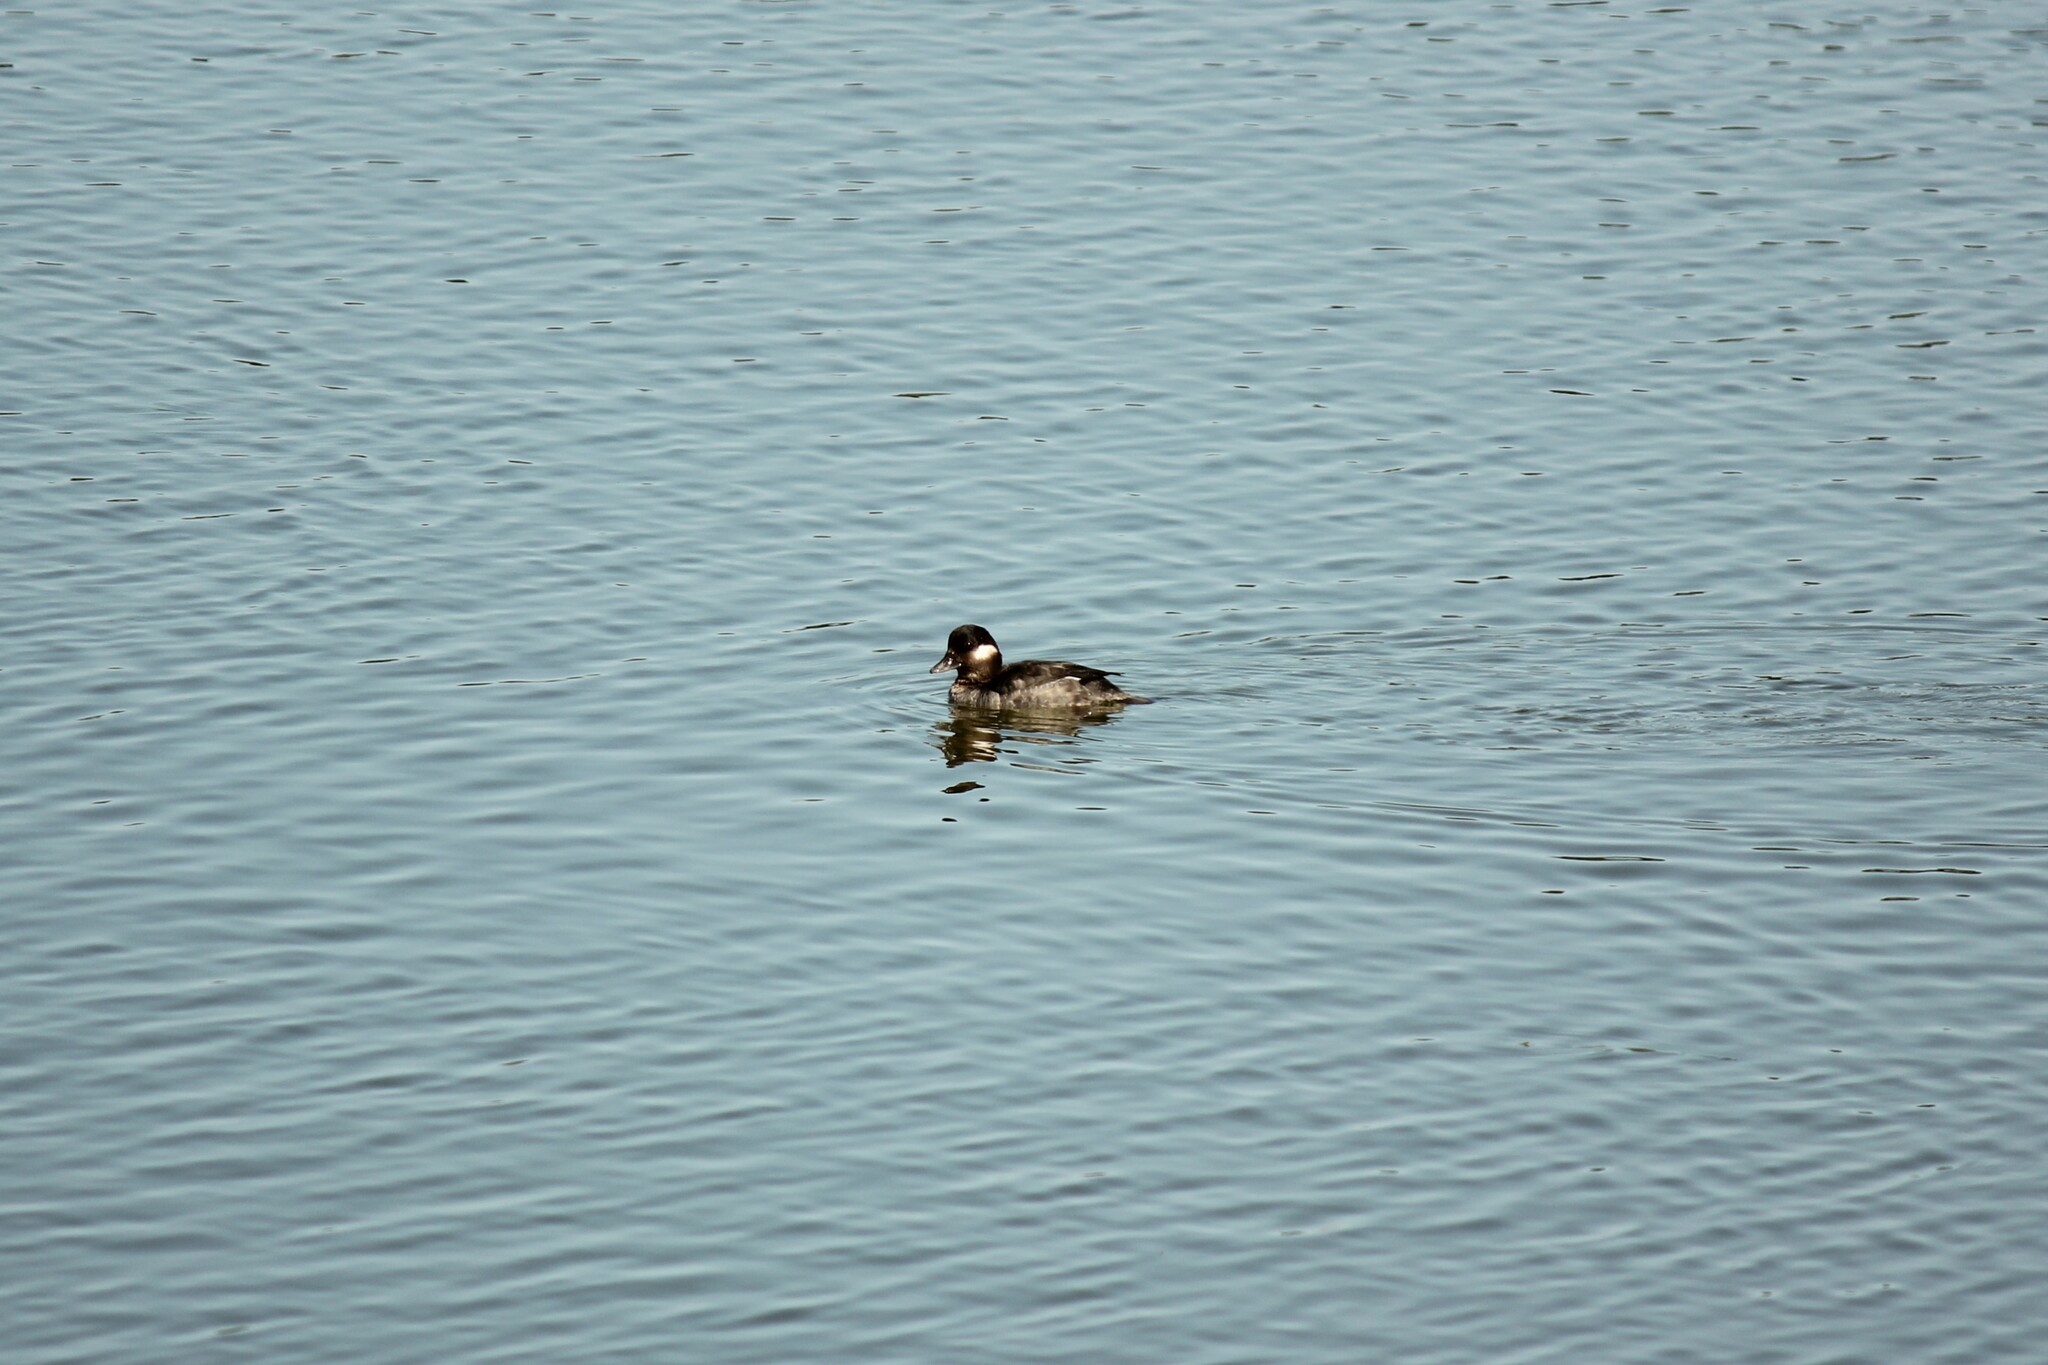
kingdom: Animalia
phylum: Chordata
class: Aves
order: Anseriformes
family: Anatidae
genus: Bucephala
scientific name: Bucephala albeola
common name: Bufflehead
